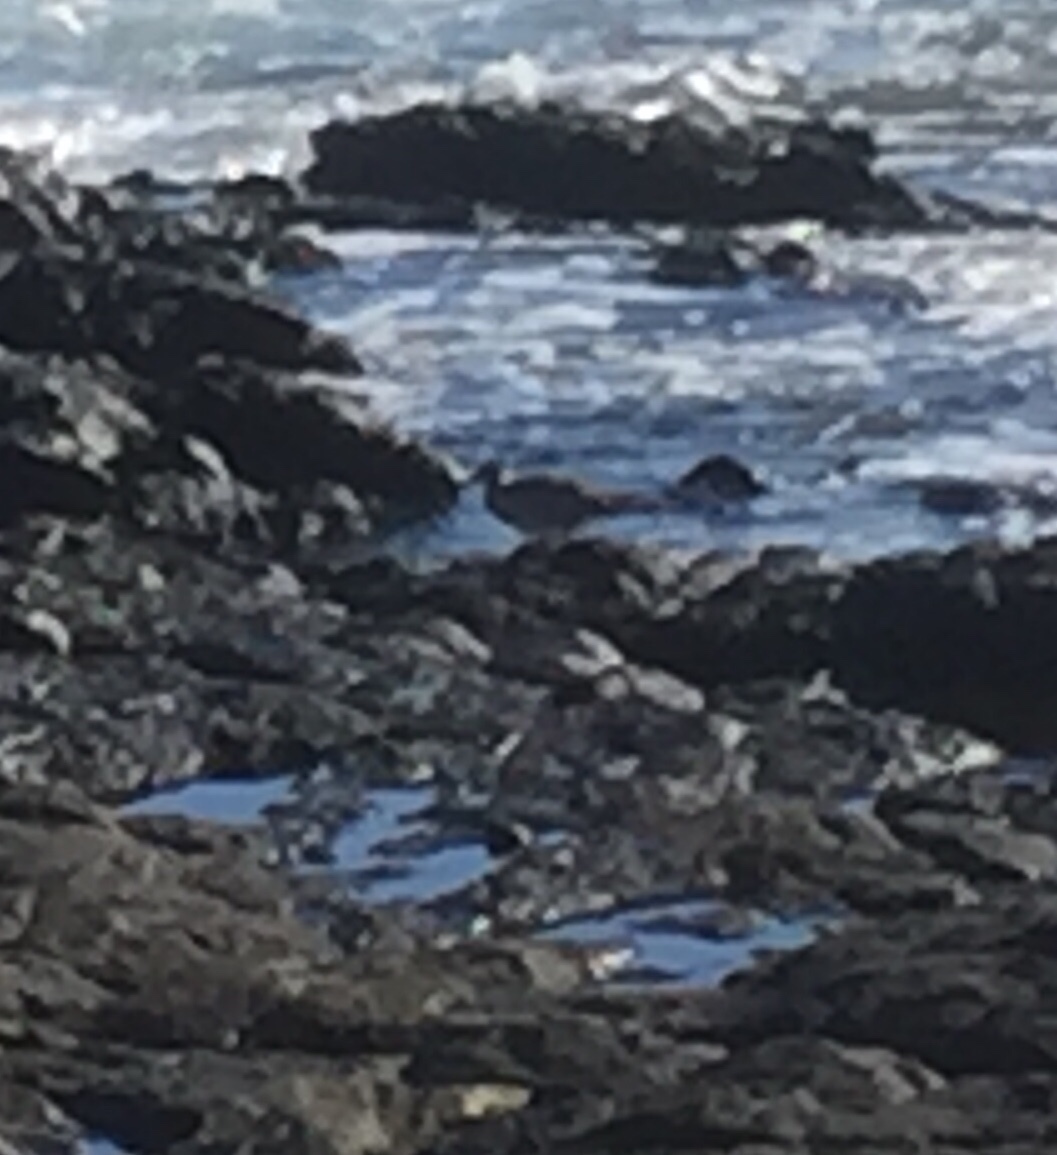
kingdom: Animalia
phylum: Chordata
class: Aves
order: Charadriiformes
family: Scolopacidae
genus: Numenius
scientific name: Numenius phaeopus
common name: Whimbrel
